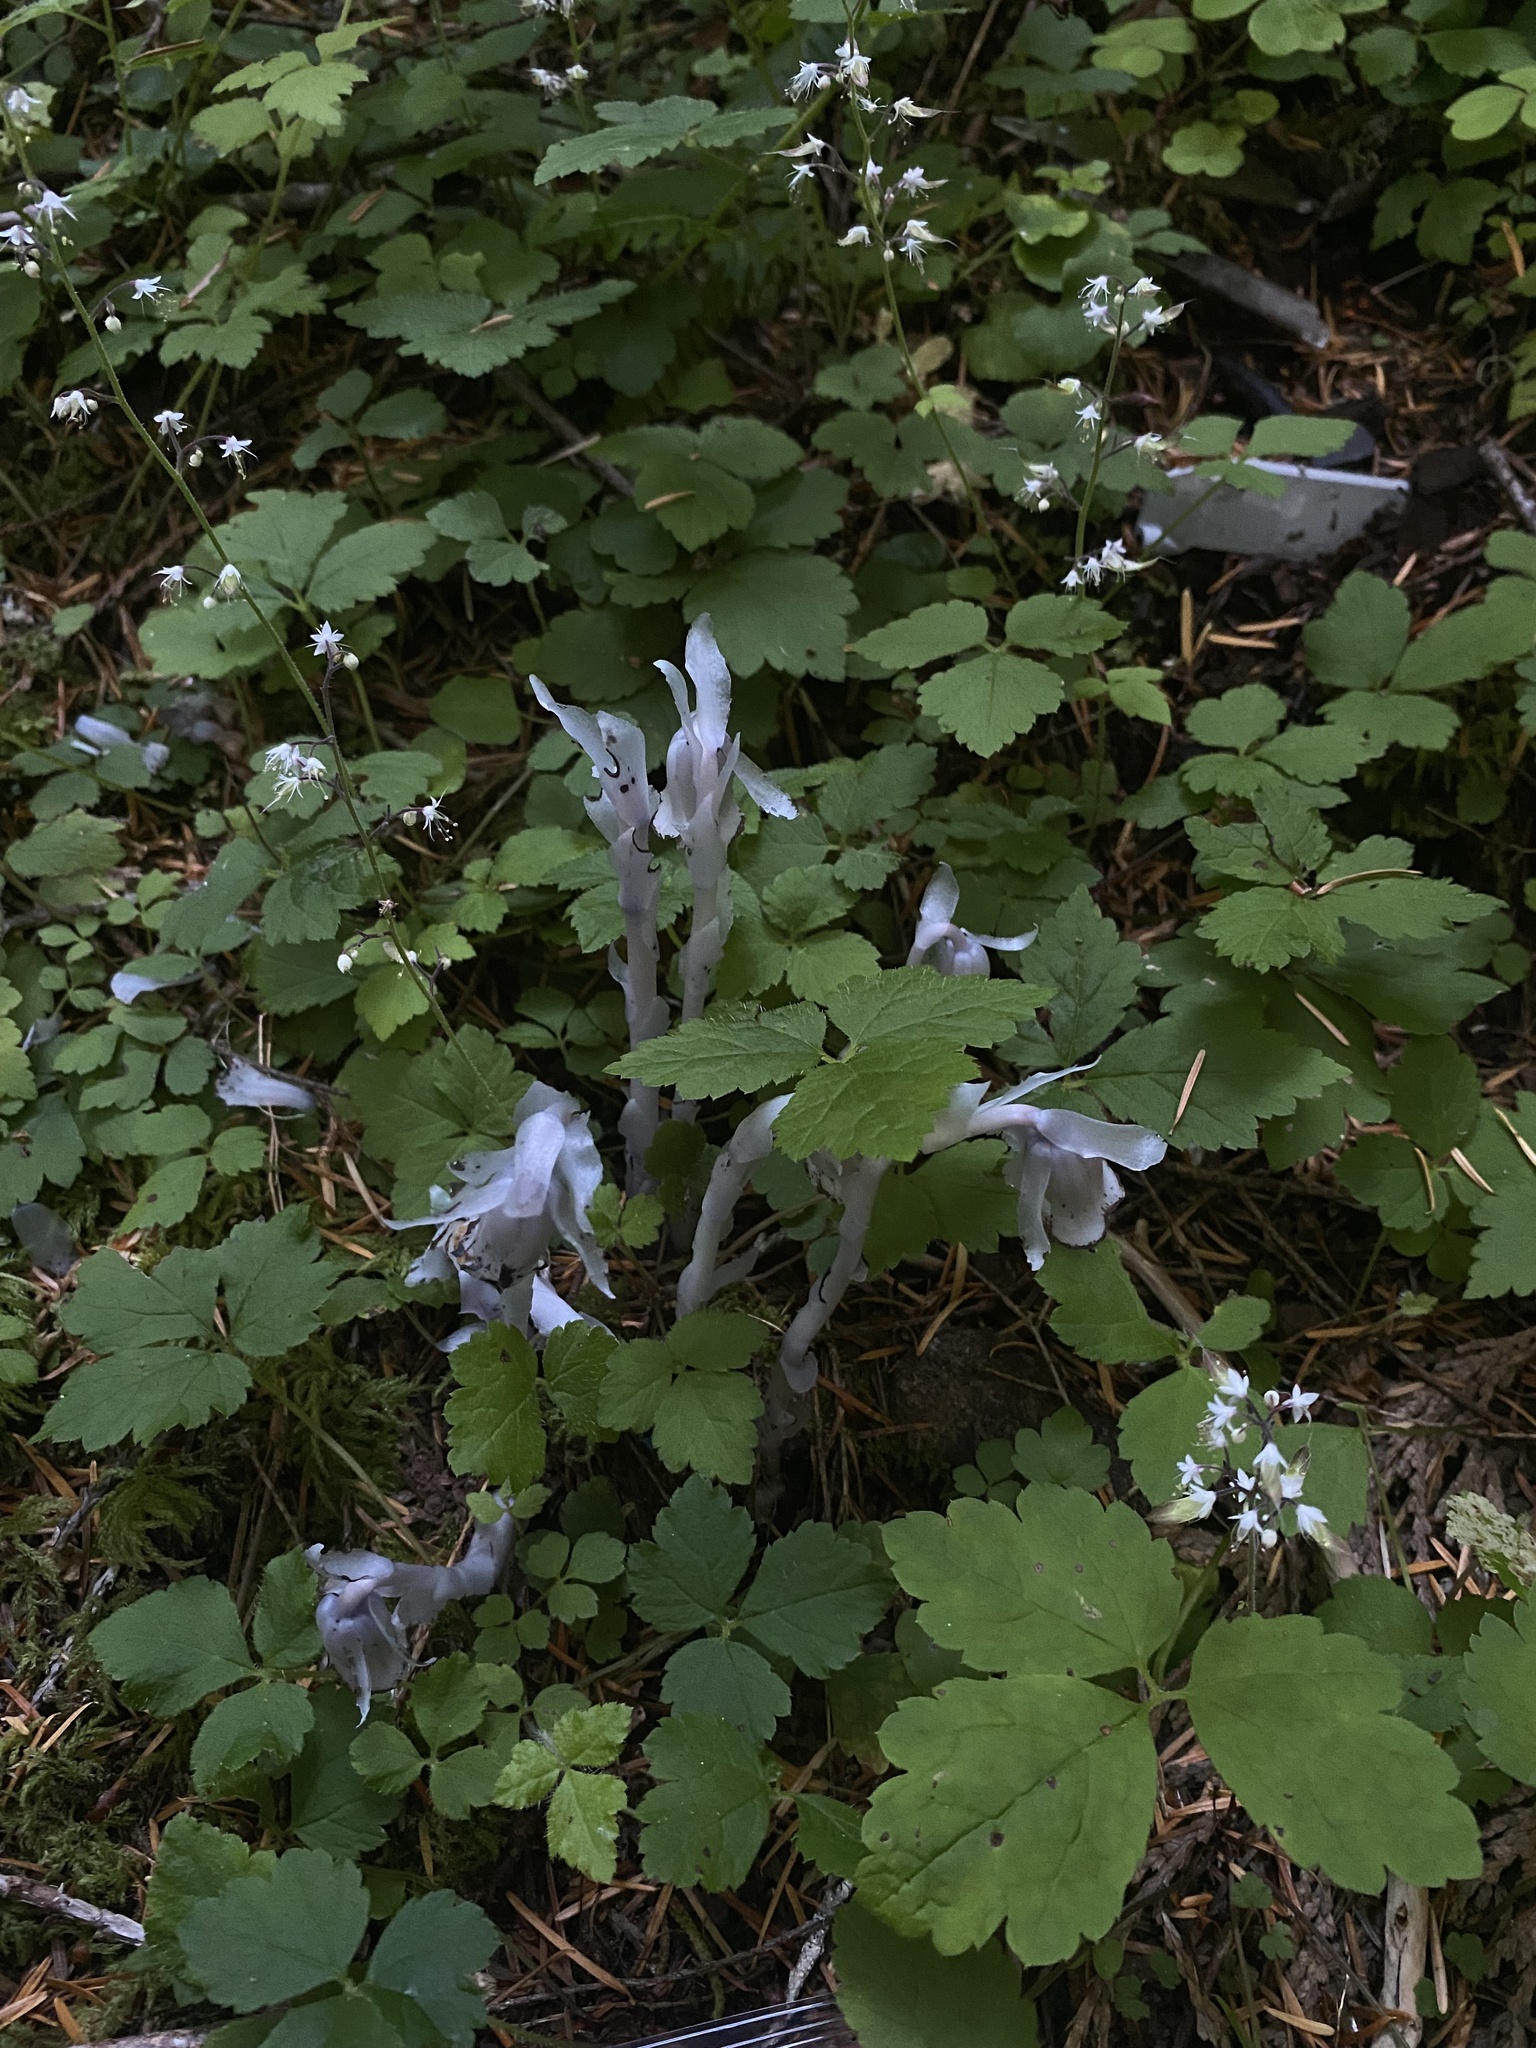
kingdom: Plantae
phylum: Tracheophyta
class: Magnoliopsida
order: Ericales
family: Ericaceae
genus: Monotropa
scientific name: Monotropa uniflora
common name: Convulsion root
